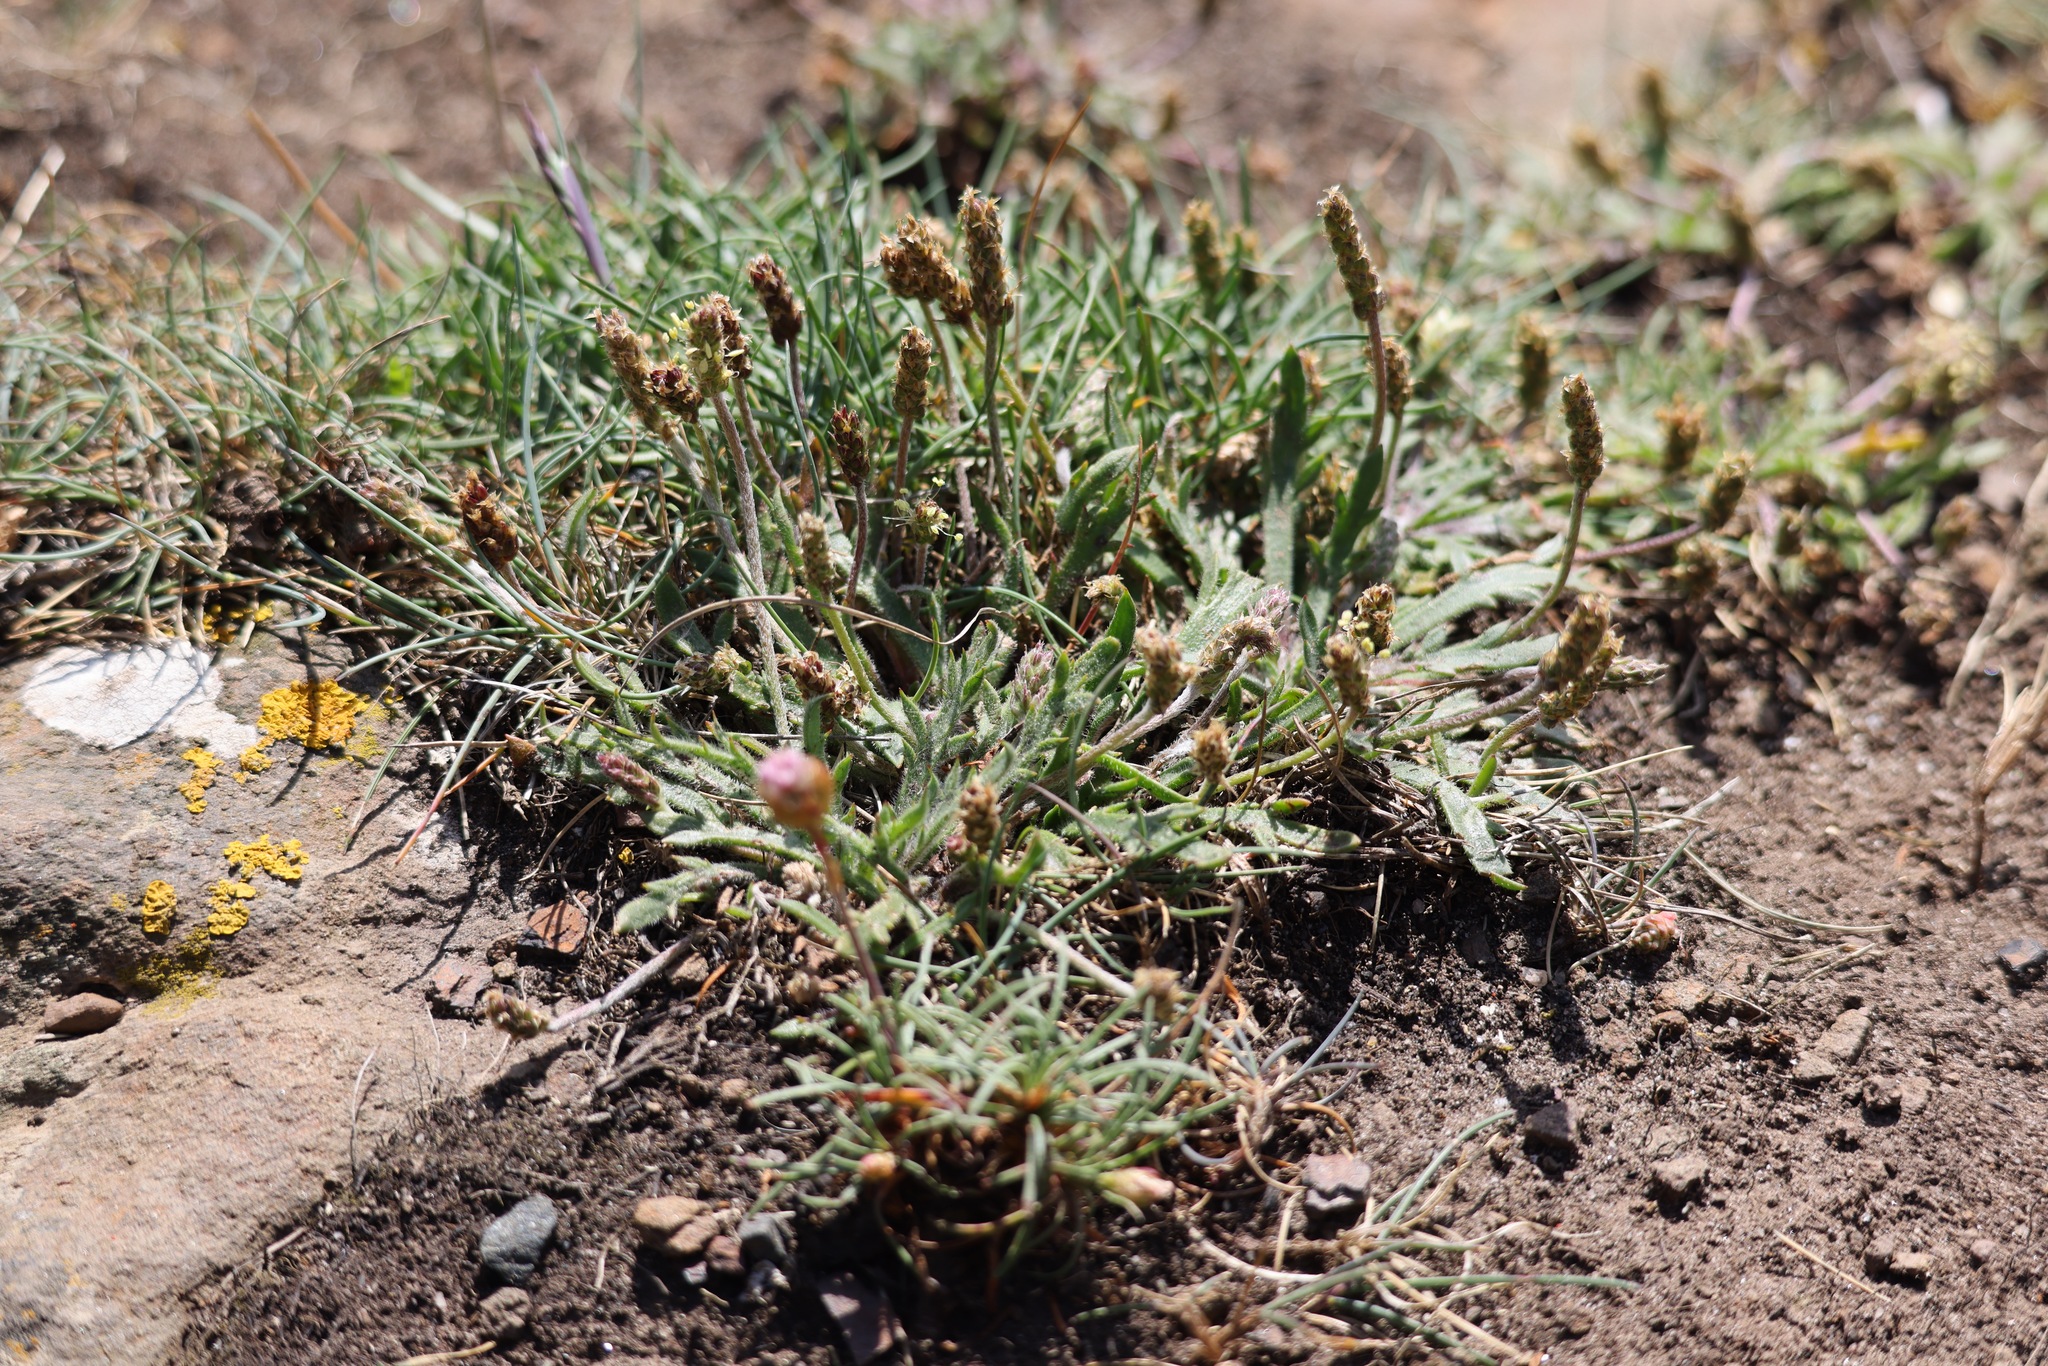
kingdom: Plantae
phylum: Tracheophyta
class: Magnoliopsida
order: Lamiales
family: Plantaginaceae
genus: Plantago
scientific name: Plantago coronopus
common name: Buck's-horn plantain
